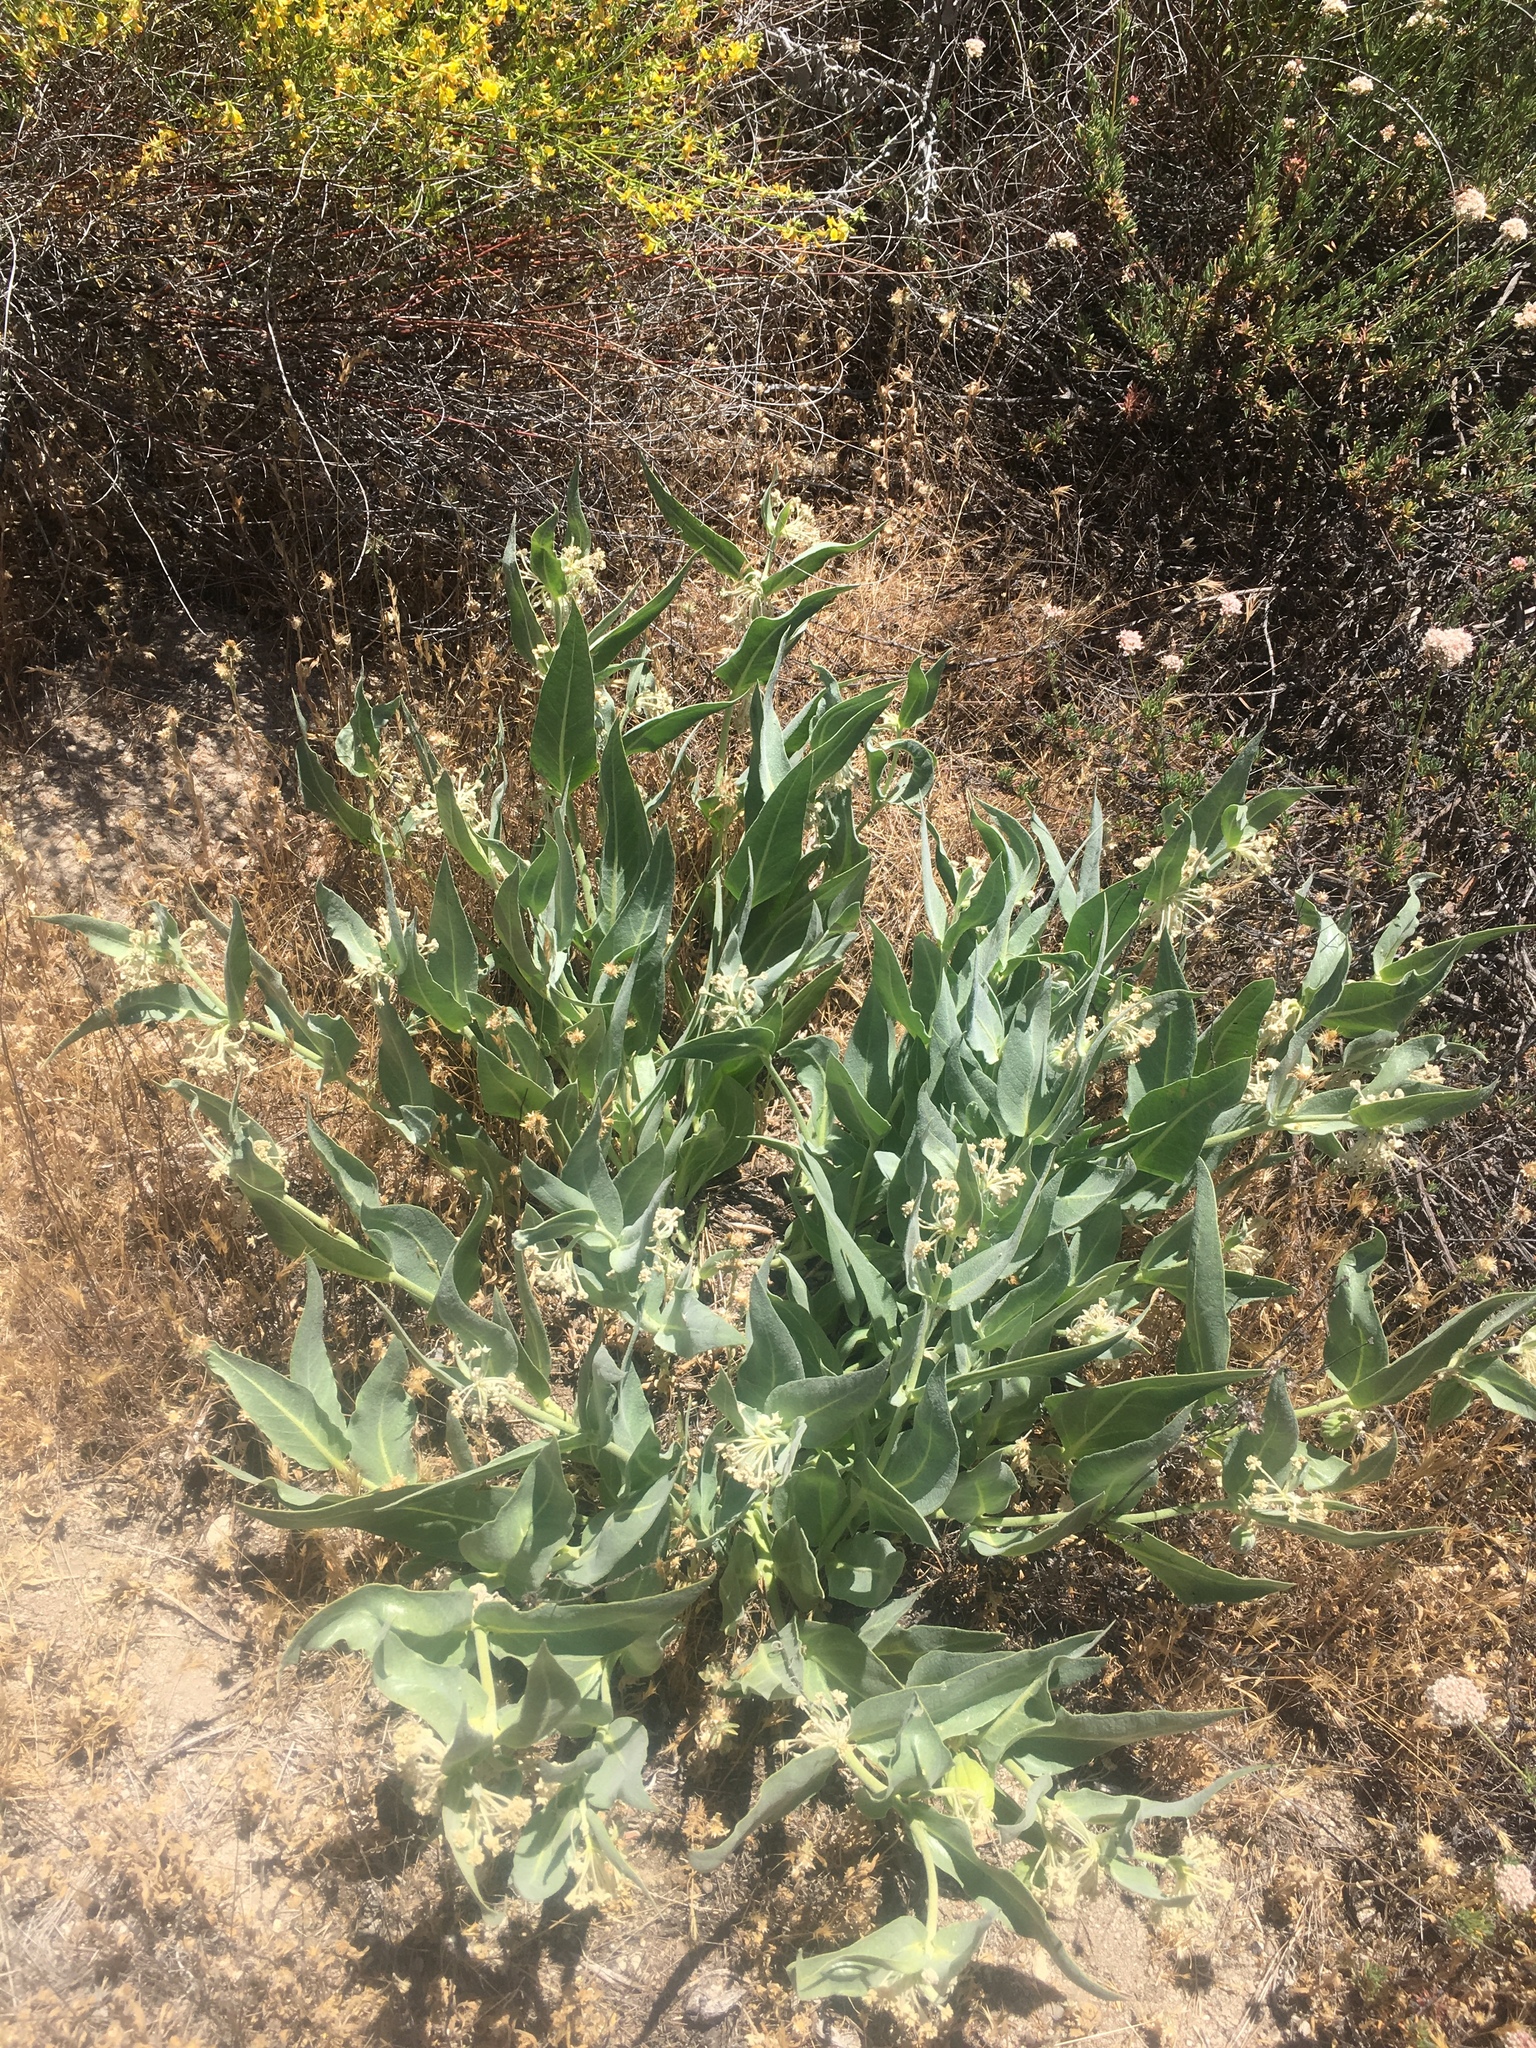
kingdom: Plantae
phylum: Tracheophyta
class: Magnoliopsida
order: Gentianales
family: Apocynaceae
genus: Asclepias
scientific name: Asclepias vestita
